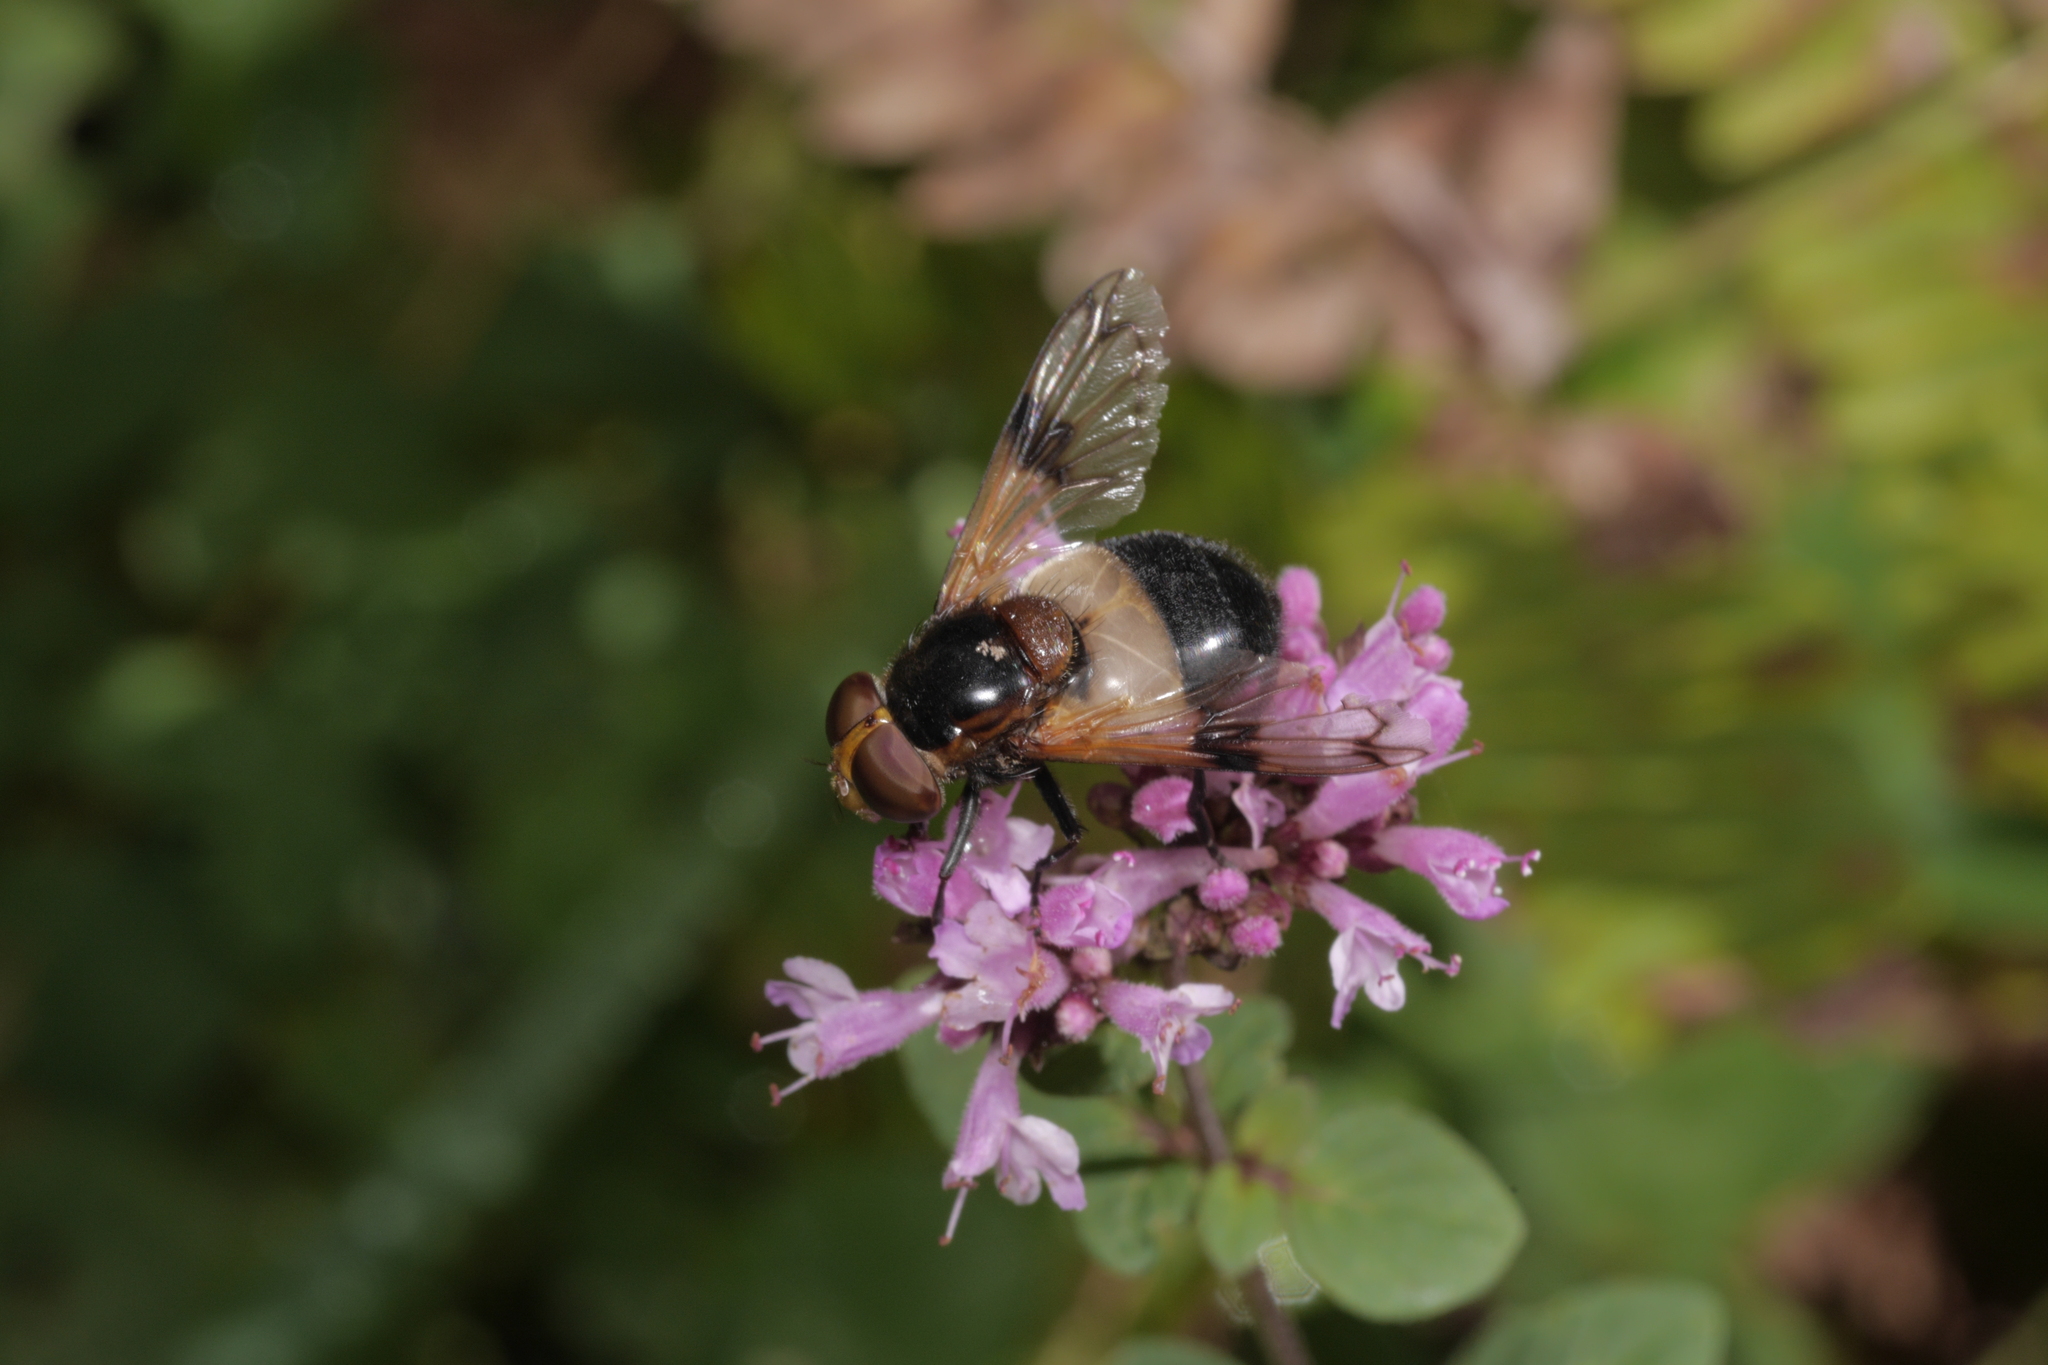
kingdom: Animalia
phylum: Arthropoda
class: Insecta
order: Diptera
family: Syrphidae
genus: Volucella
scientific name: Volucella pellucens
